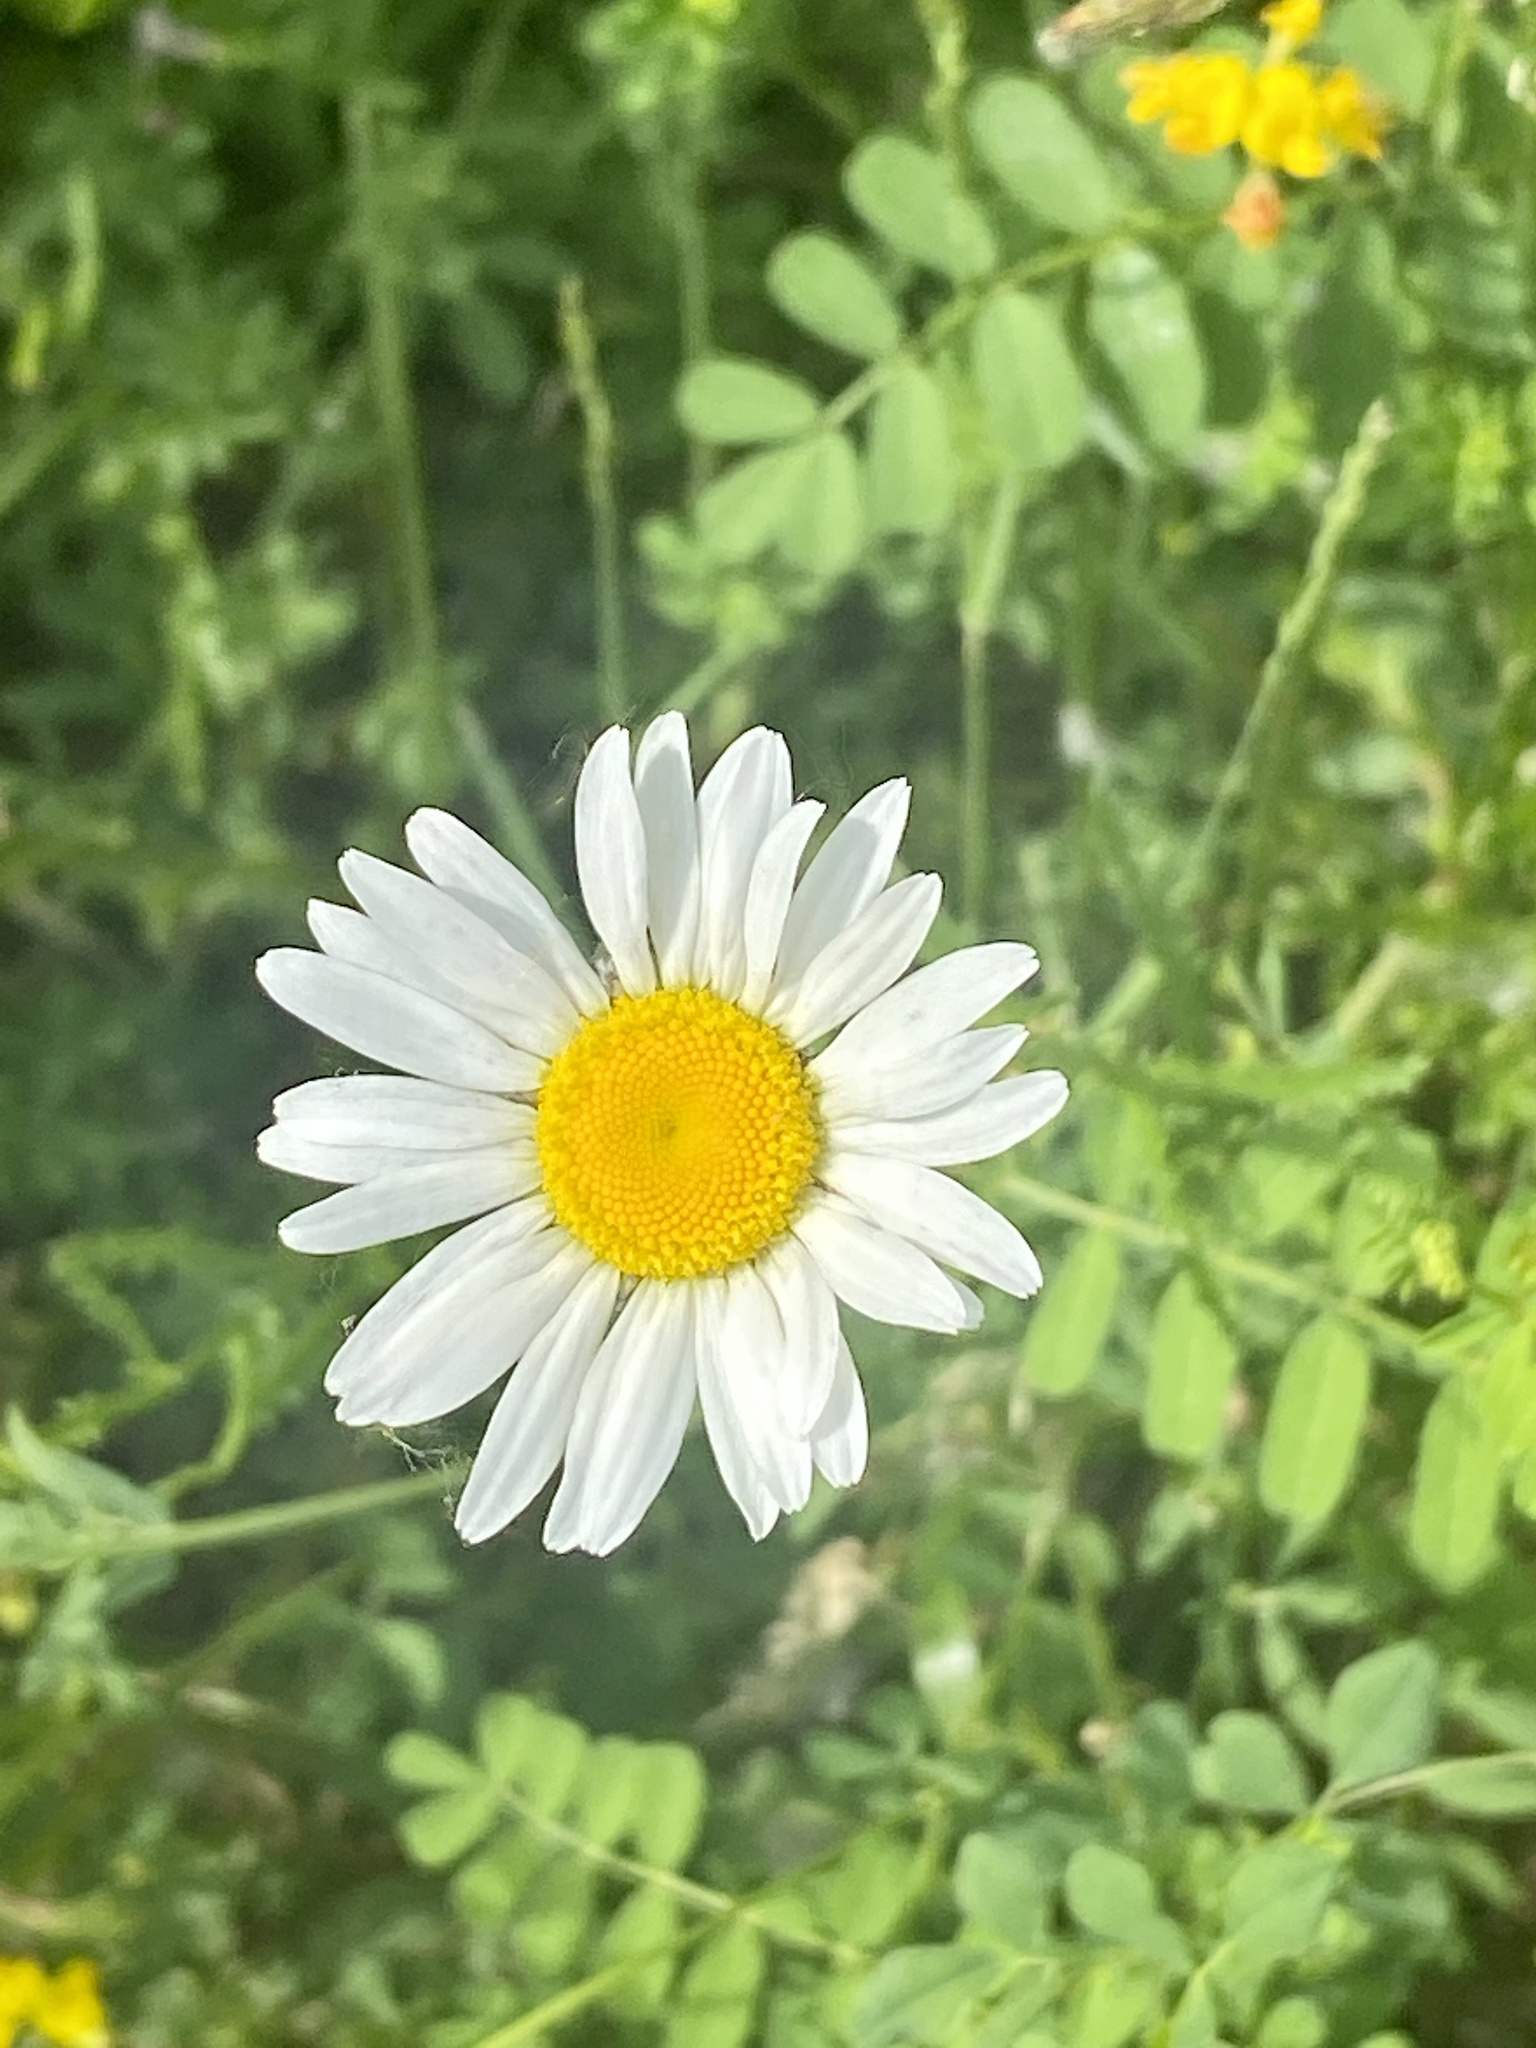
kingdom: Plantae
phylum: Tracheophyta
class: Magnoliopsida
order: Asterales
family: Asteraceae
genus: Leucanthemum
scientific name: Leucanthemum vulgare
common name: Oxeye daisy
